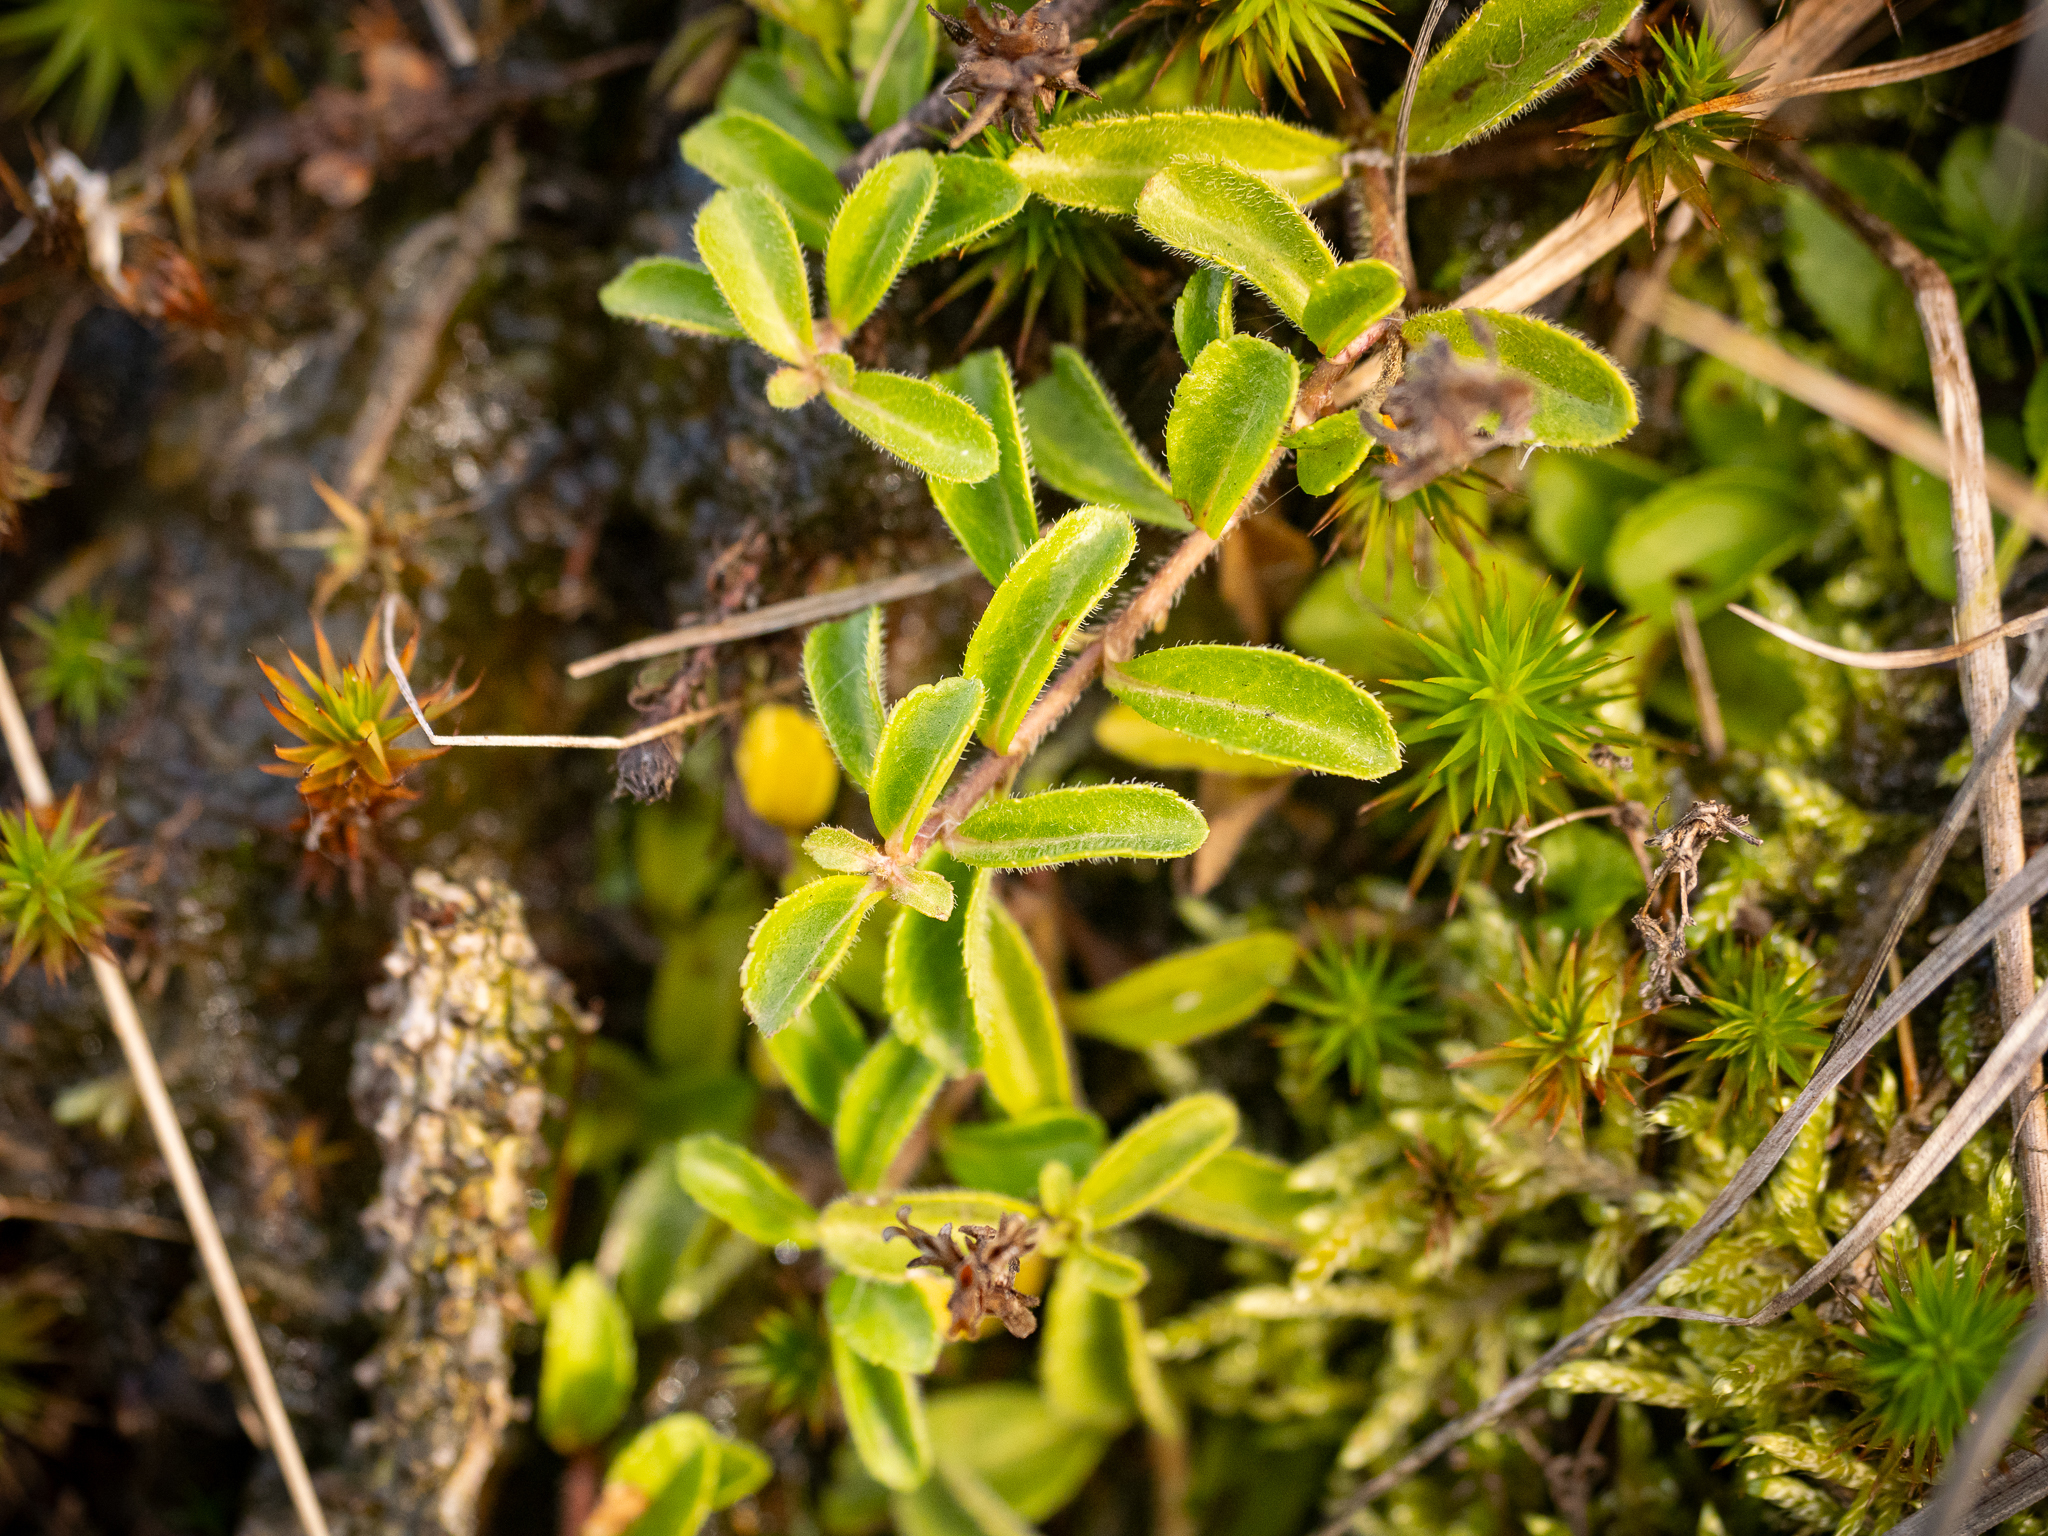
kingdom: Plantae
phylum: Tracheophyta
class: Magnoliopsida
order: Lamiales
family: Plantaginaceae
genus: Veronica
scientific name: Veronica officinalis
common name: Common speedwell
